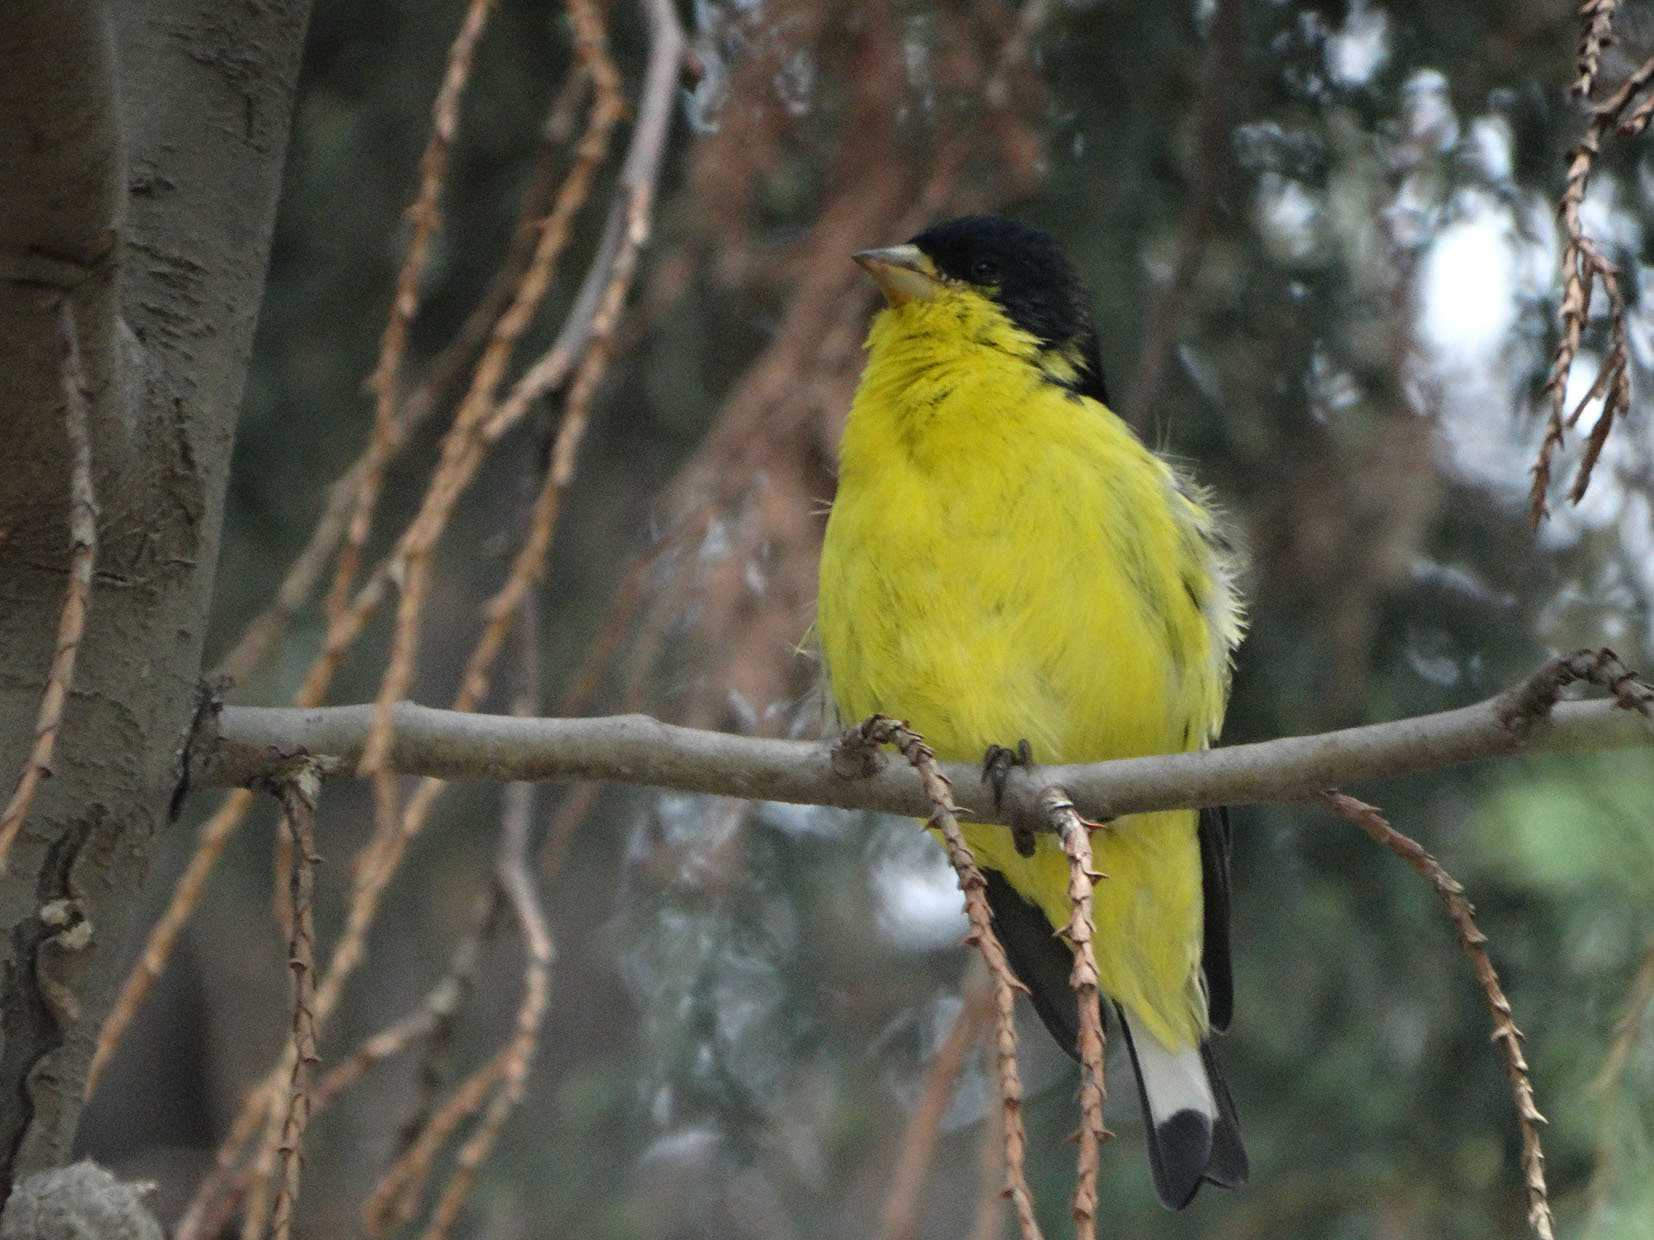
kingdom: Animalia
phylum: Chordata
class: Aves
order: Passeriformes
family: Fringillidae
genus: Spinus
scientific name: Spinus psaltria
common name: Lesser goldfinch
